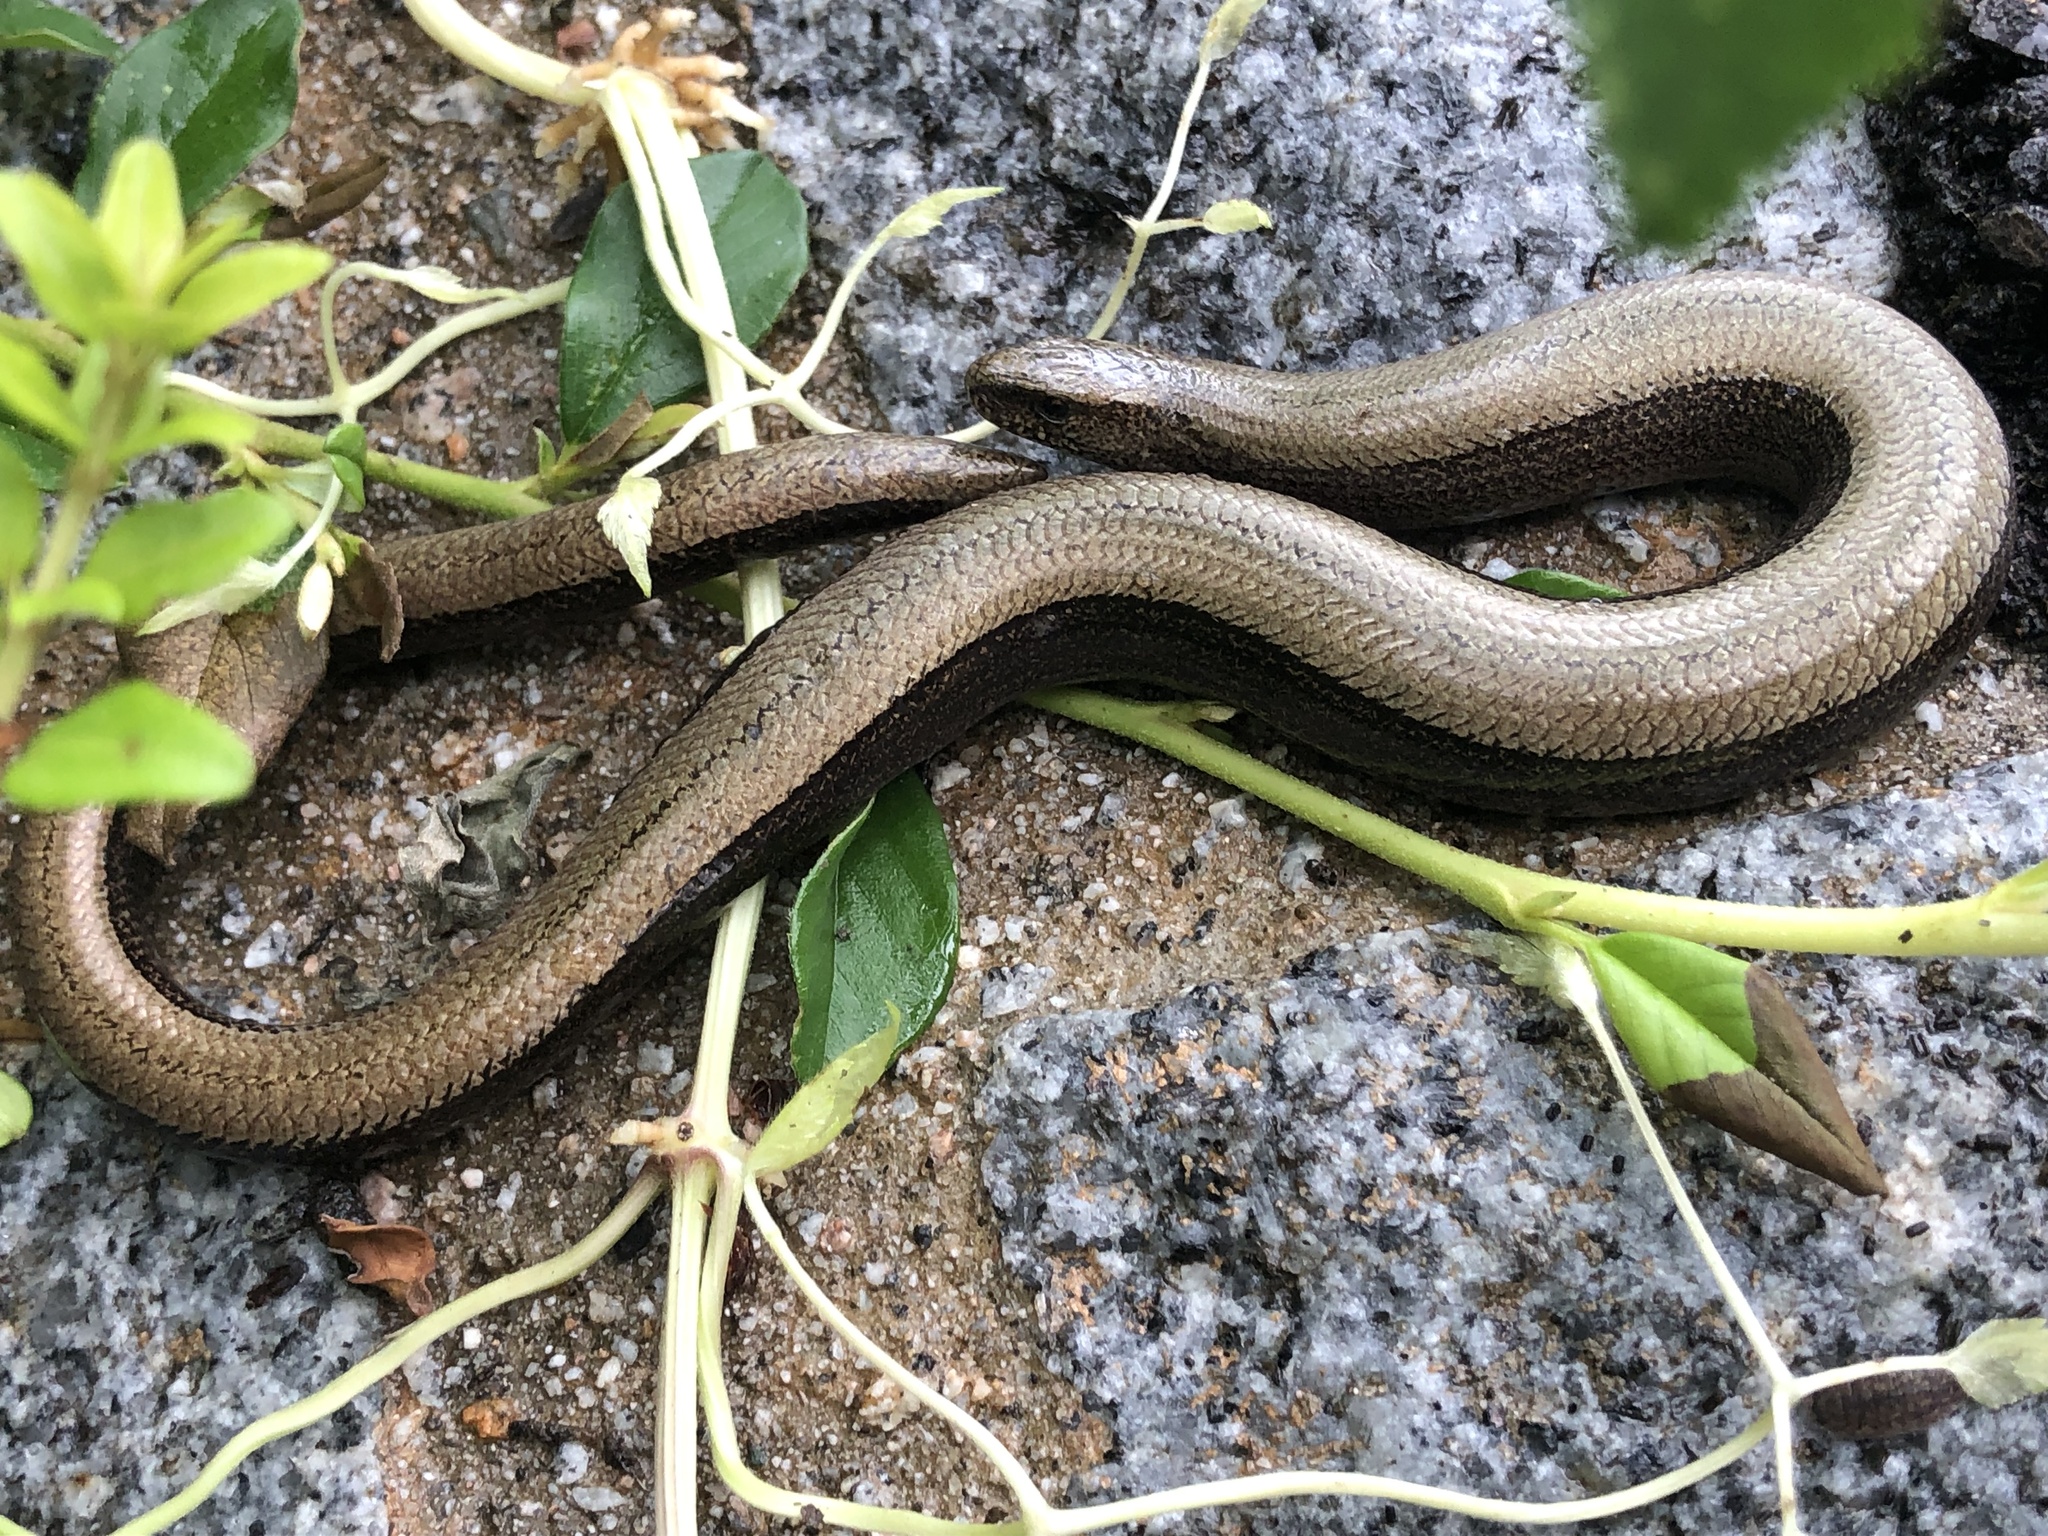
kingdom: Animalia
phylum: Chordata
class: Squamata
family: Anguidae
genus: Anguis
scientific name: Anguis fragilis
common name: Slow worm
